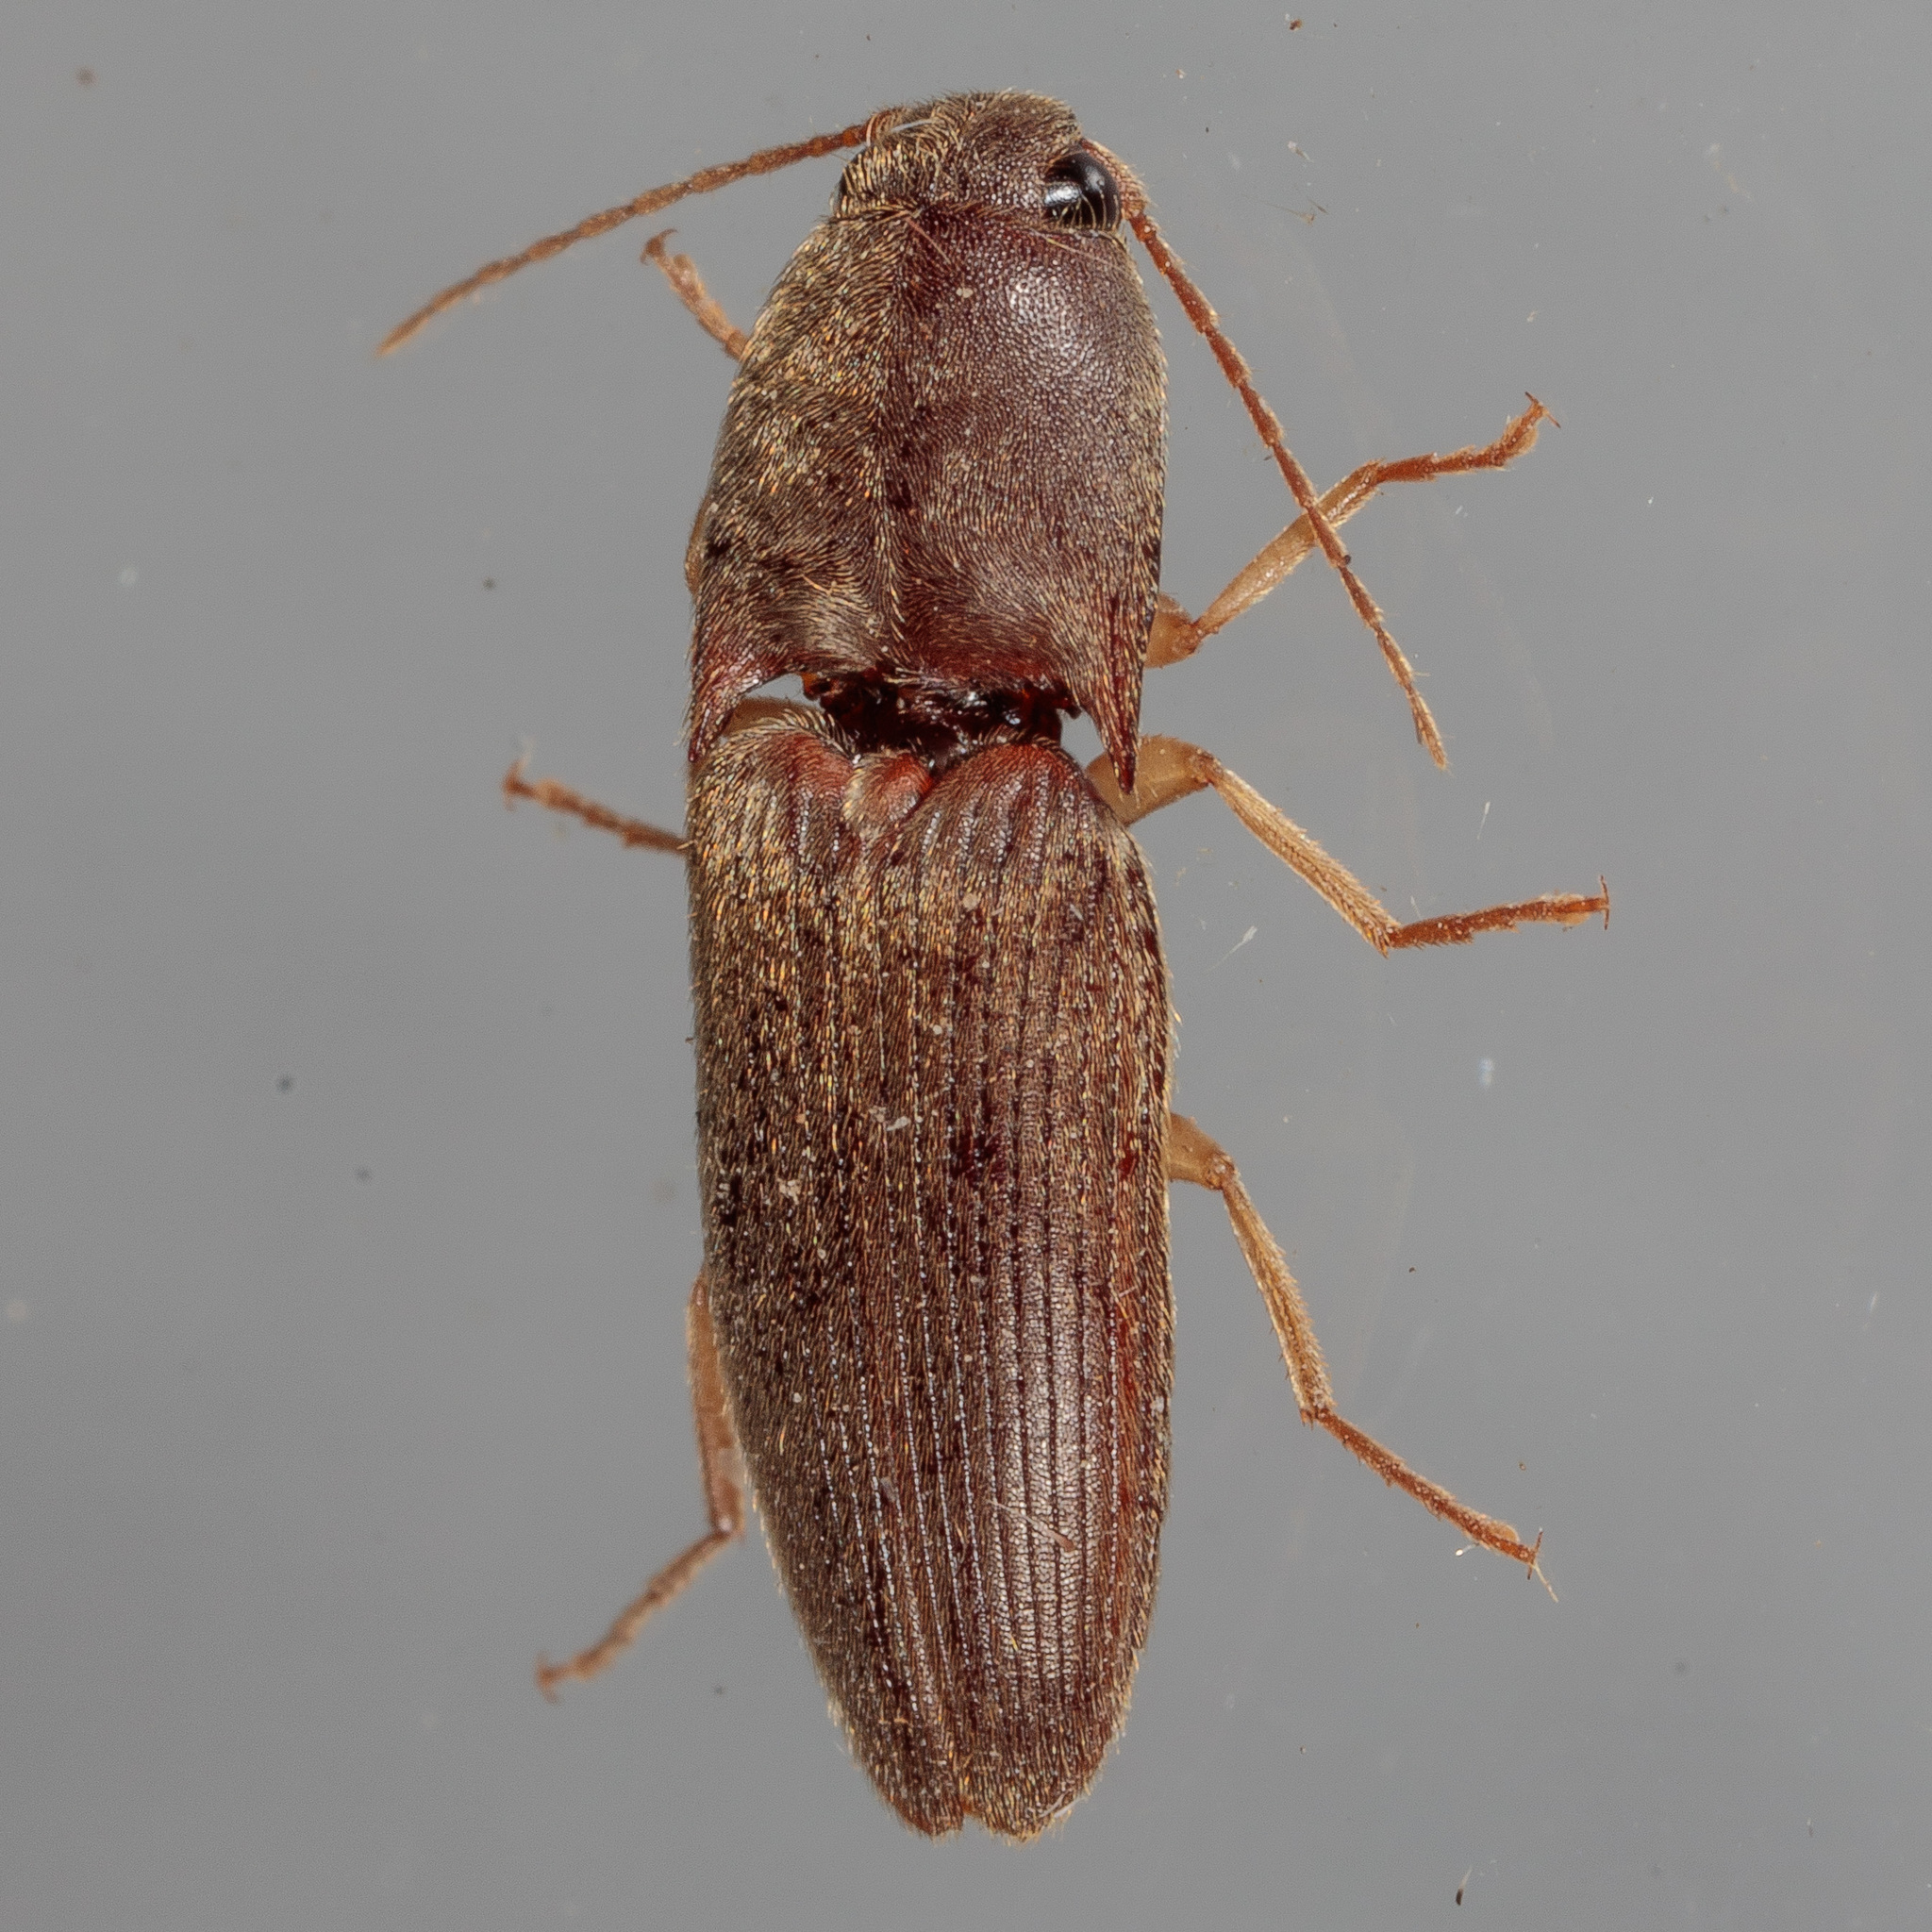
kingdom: Animalia
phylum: Arthropoda
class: Insecta
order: Coleoptera
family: Elateridae
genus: Conoderus
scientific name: Conoderus exsul
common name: Click beetle
